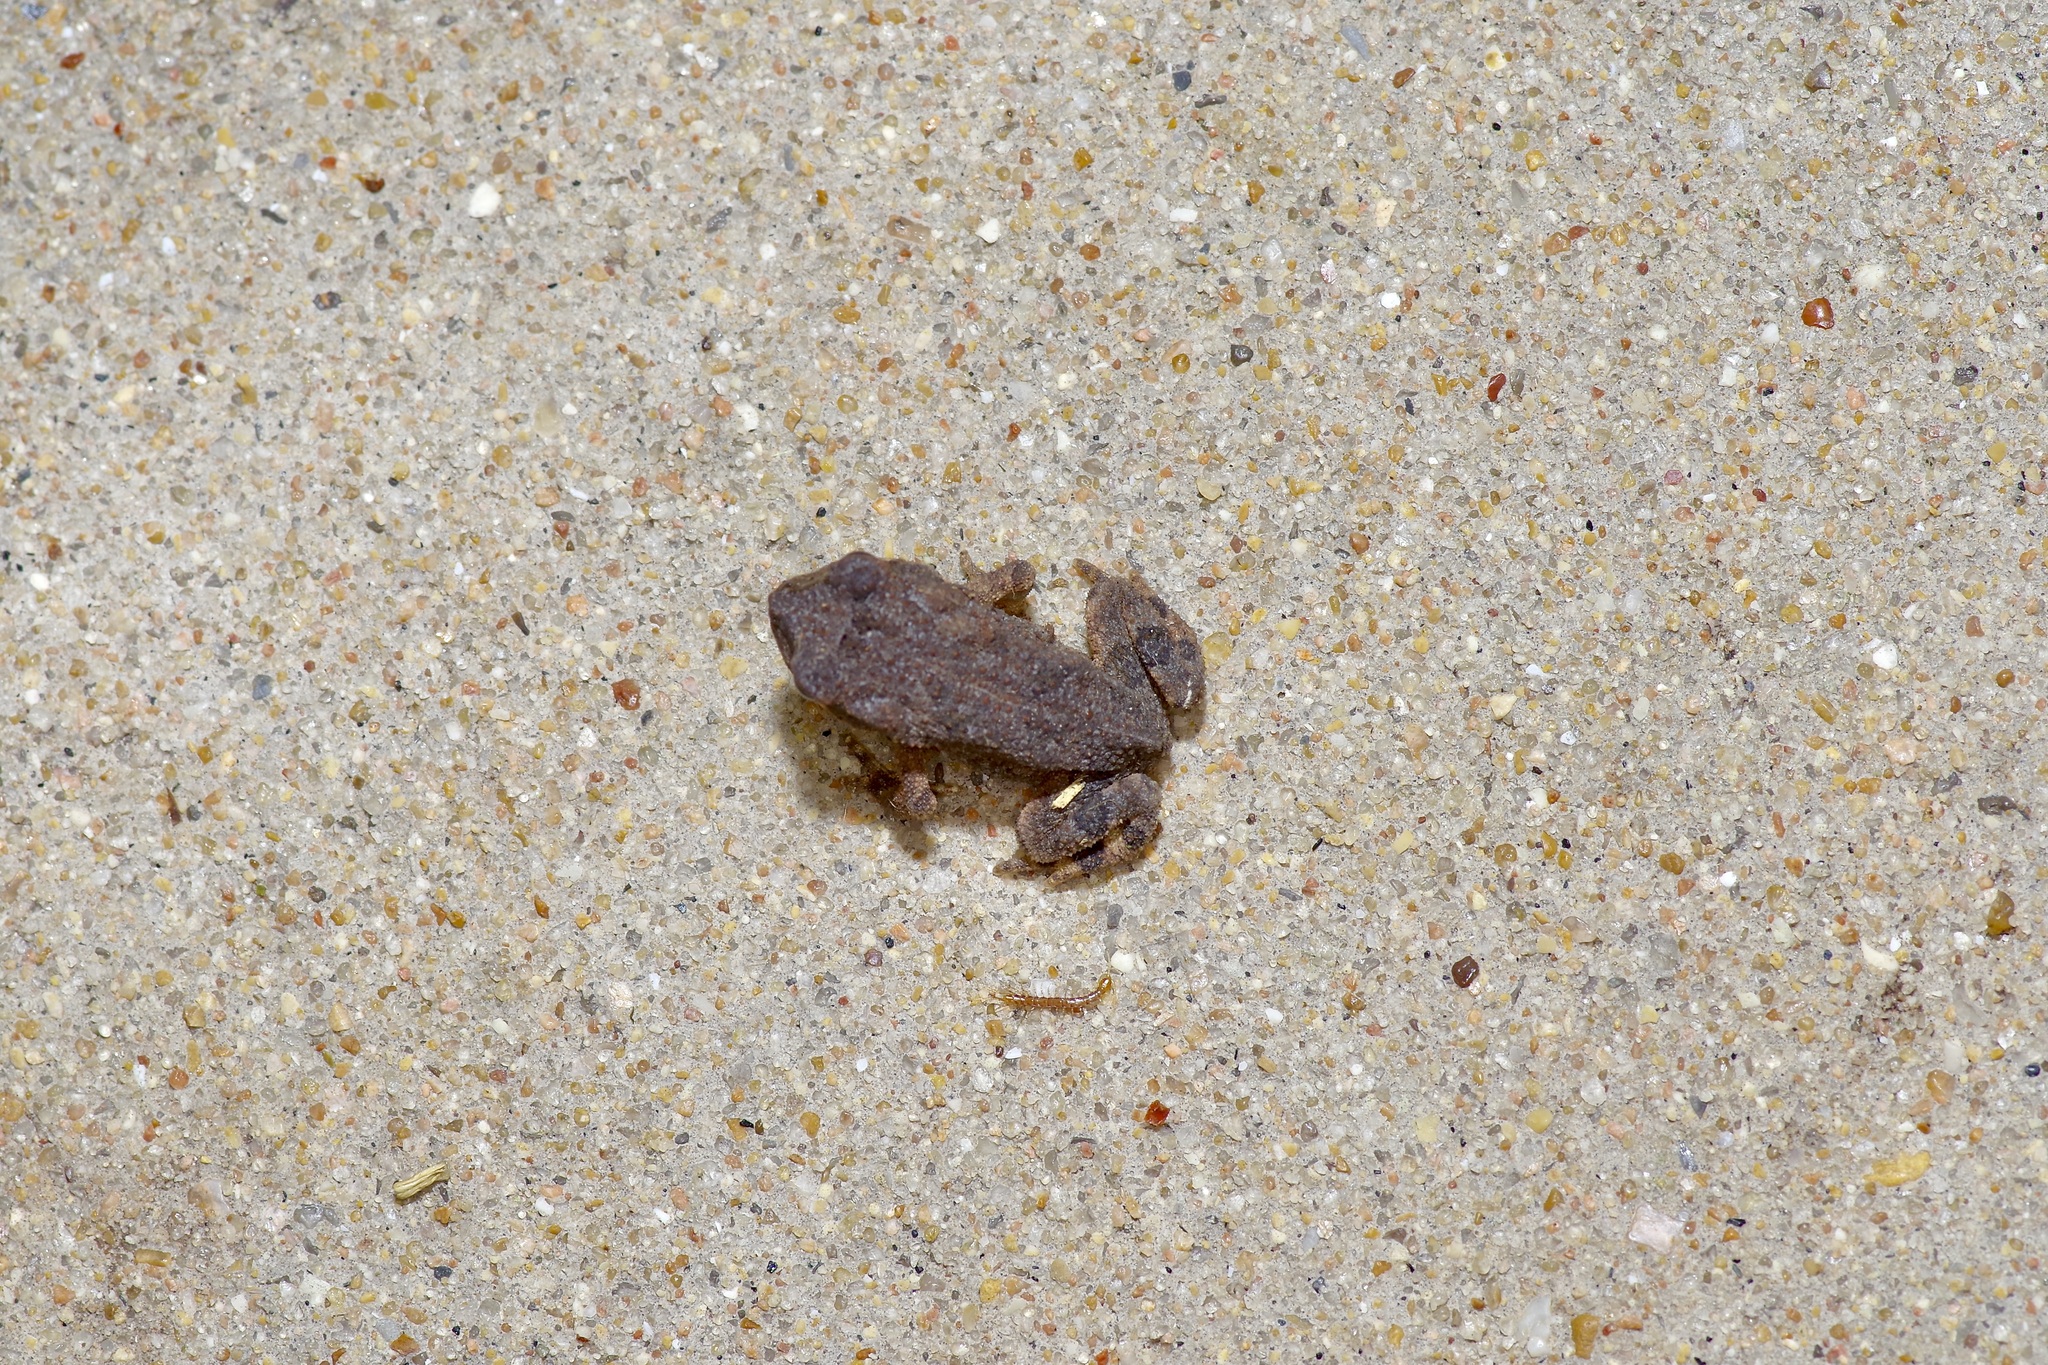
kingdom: Animalia
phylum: Chordata
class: Amphibia
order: Anura
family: Bufonidae
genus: Incilius
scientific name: Incilius nebulifer
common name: Gulf coast toad
